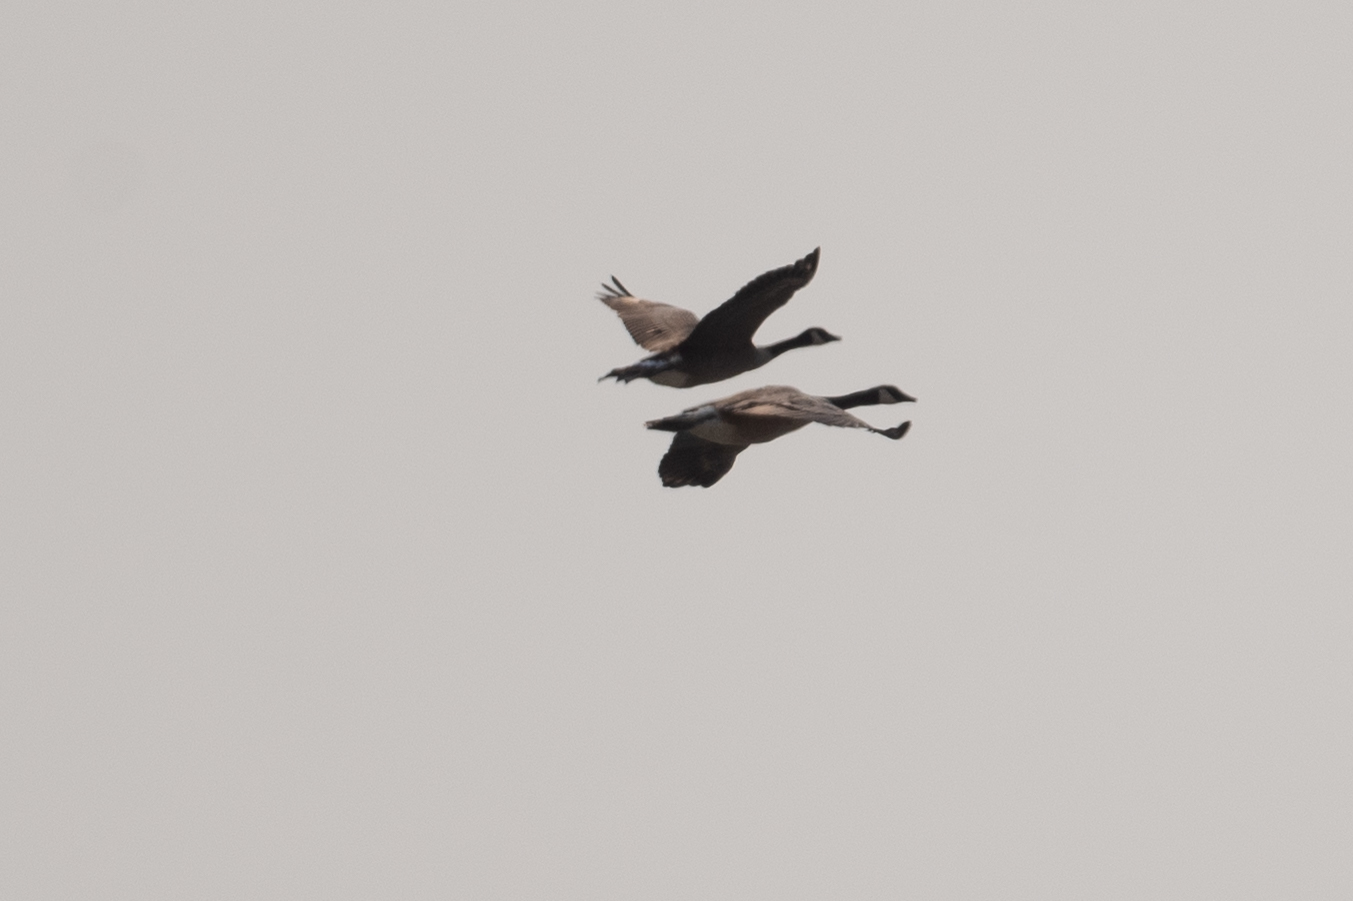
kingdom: Animalia
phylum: Chordata
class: Aves
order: Anseriformes
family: Anatidae
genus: Branta
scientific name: Branta canadensis
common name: Canada goose
